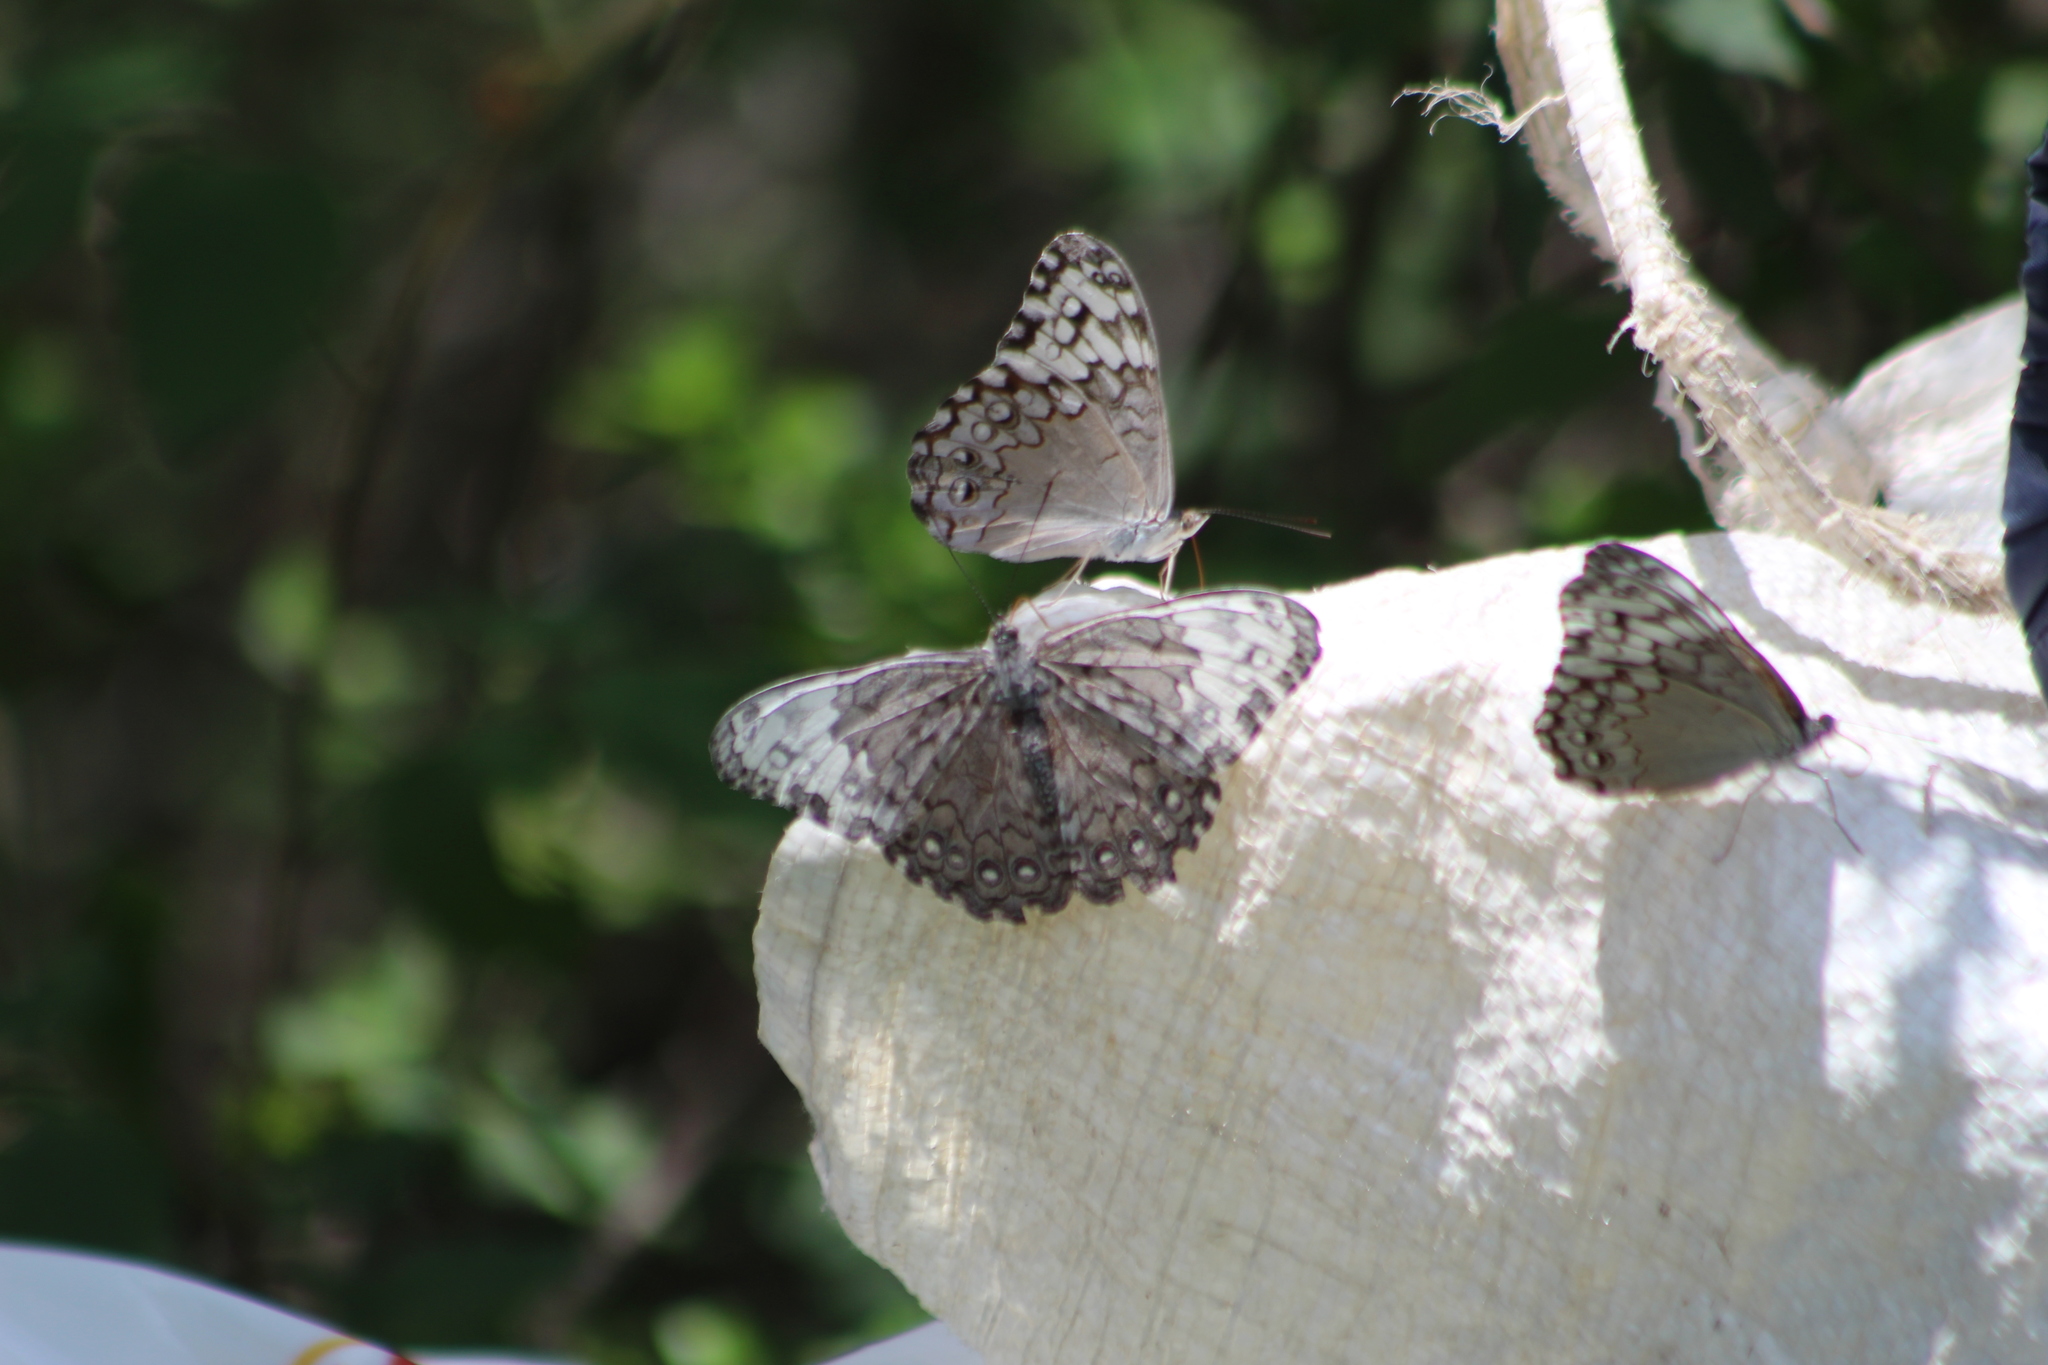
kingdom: Animalia
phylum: Arthropoda
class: Insecta
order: Lepidoptera
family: Nymphalidae
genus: Hamadryas
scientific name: Hamadryas glauconome
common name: Glaucous cracker
